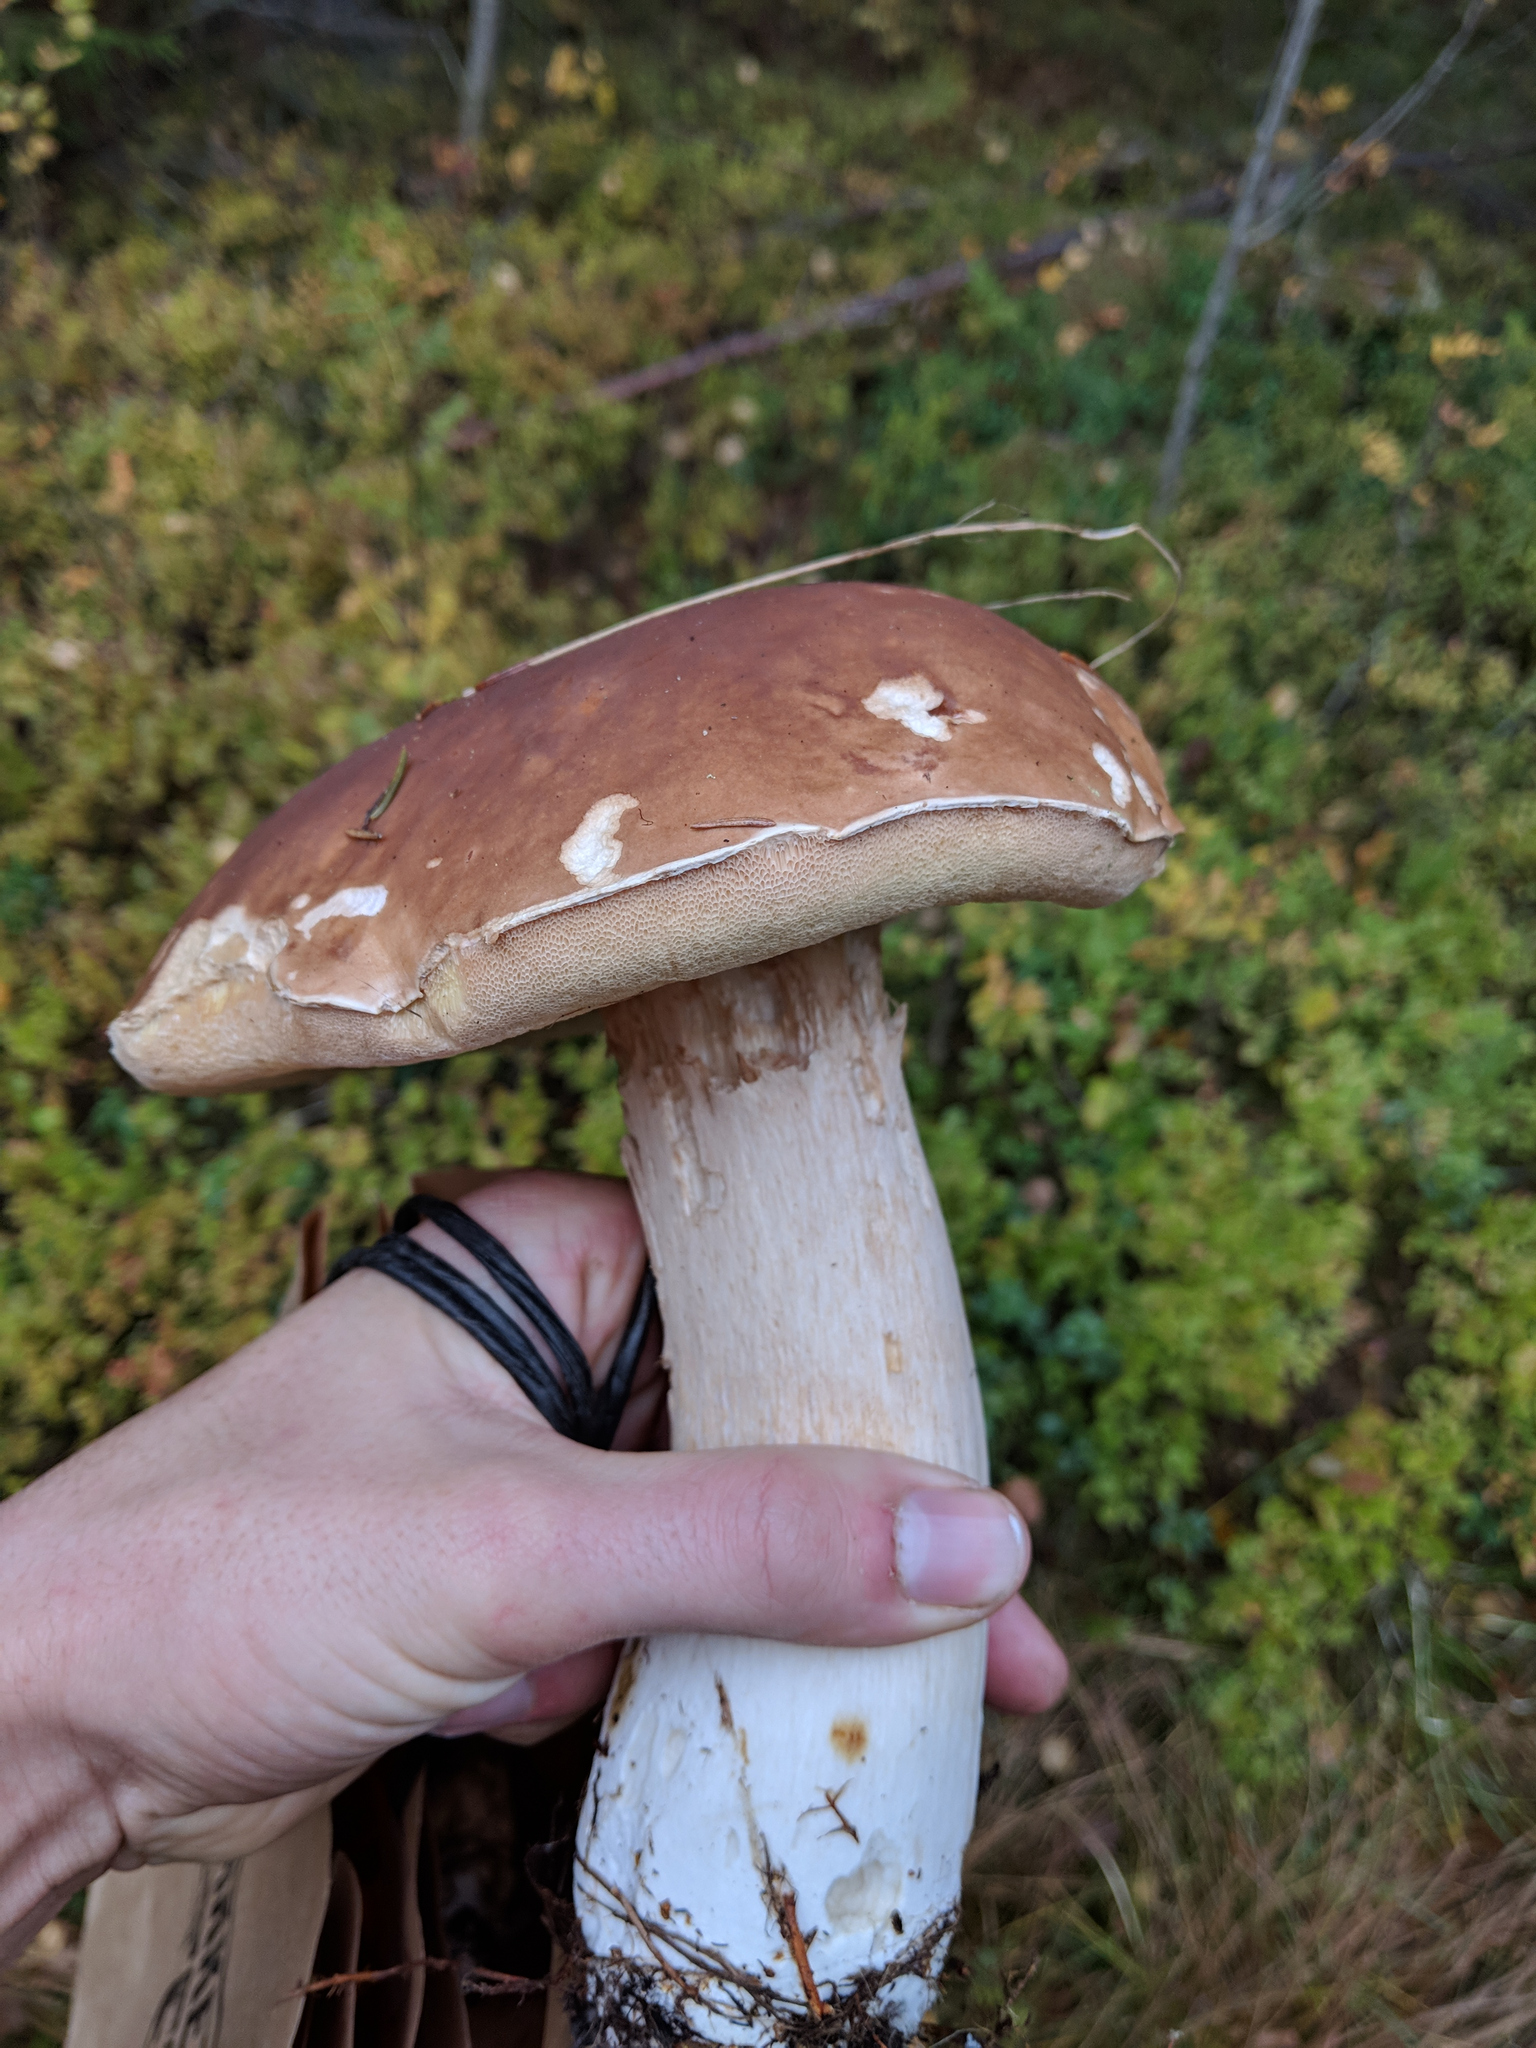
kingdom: Fungi
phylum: Basidiomycota
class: Agaricomycetes
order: Boletales
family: Boletaceae
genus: Boletus
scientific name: Boletus edulis
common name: Cep
